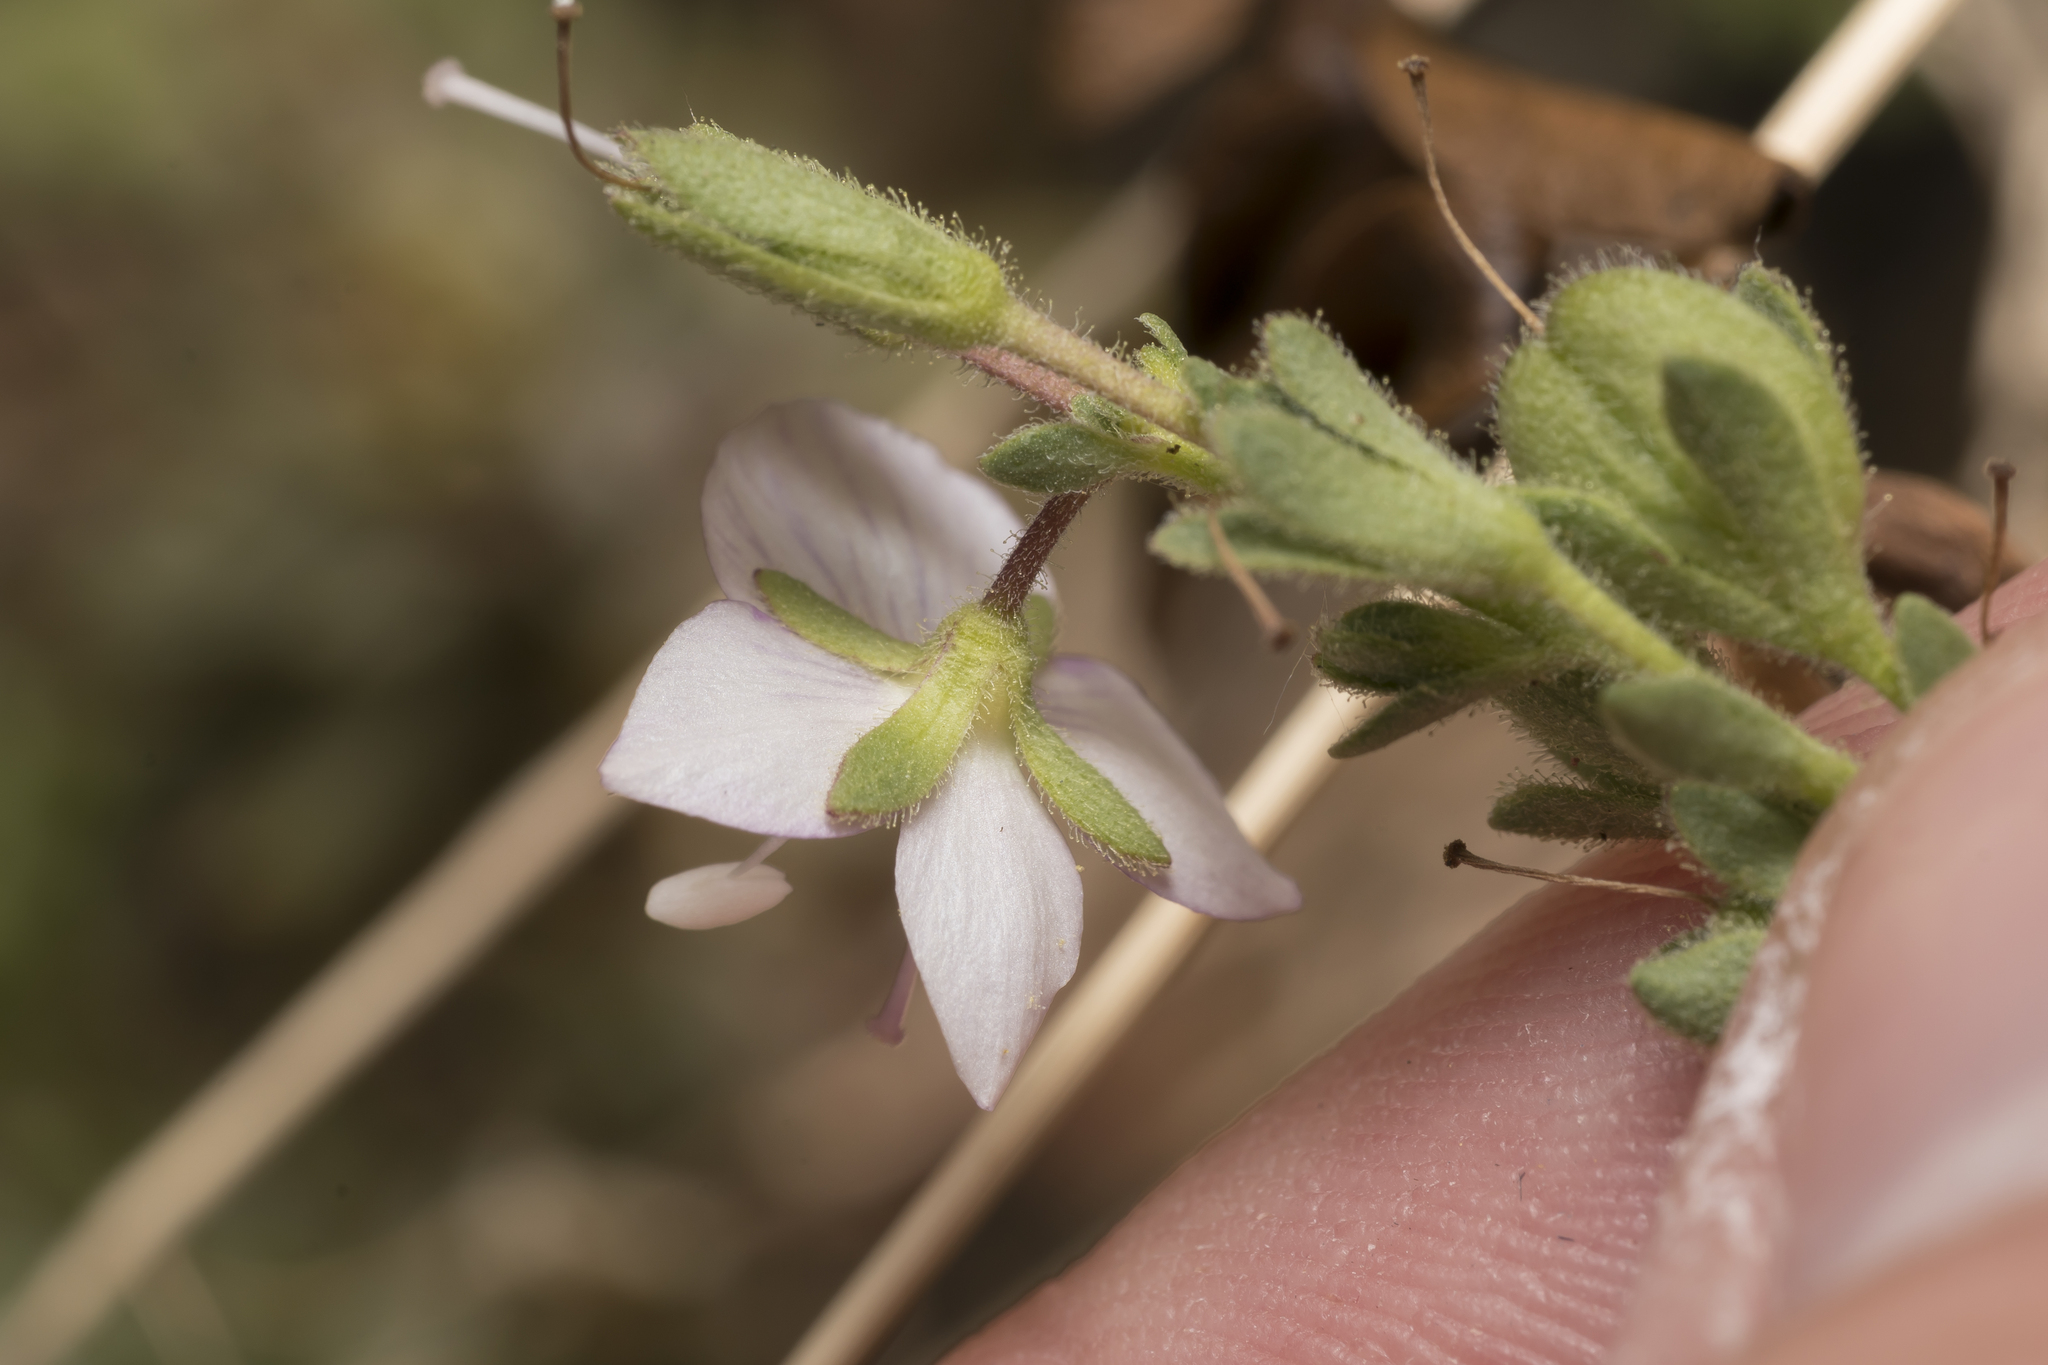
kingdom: Plantae
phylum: Tracheophyta
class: Magnoliopsida
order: Lamiales
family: Plantaginaceae
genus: Veronica
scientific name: Veronica fruticulosa
